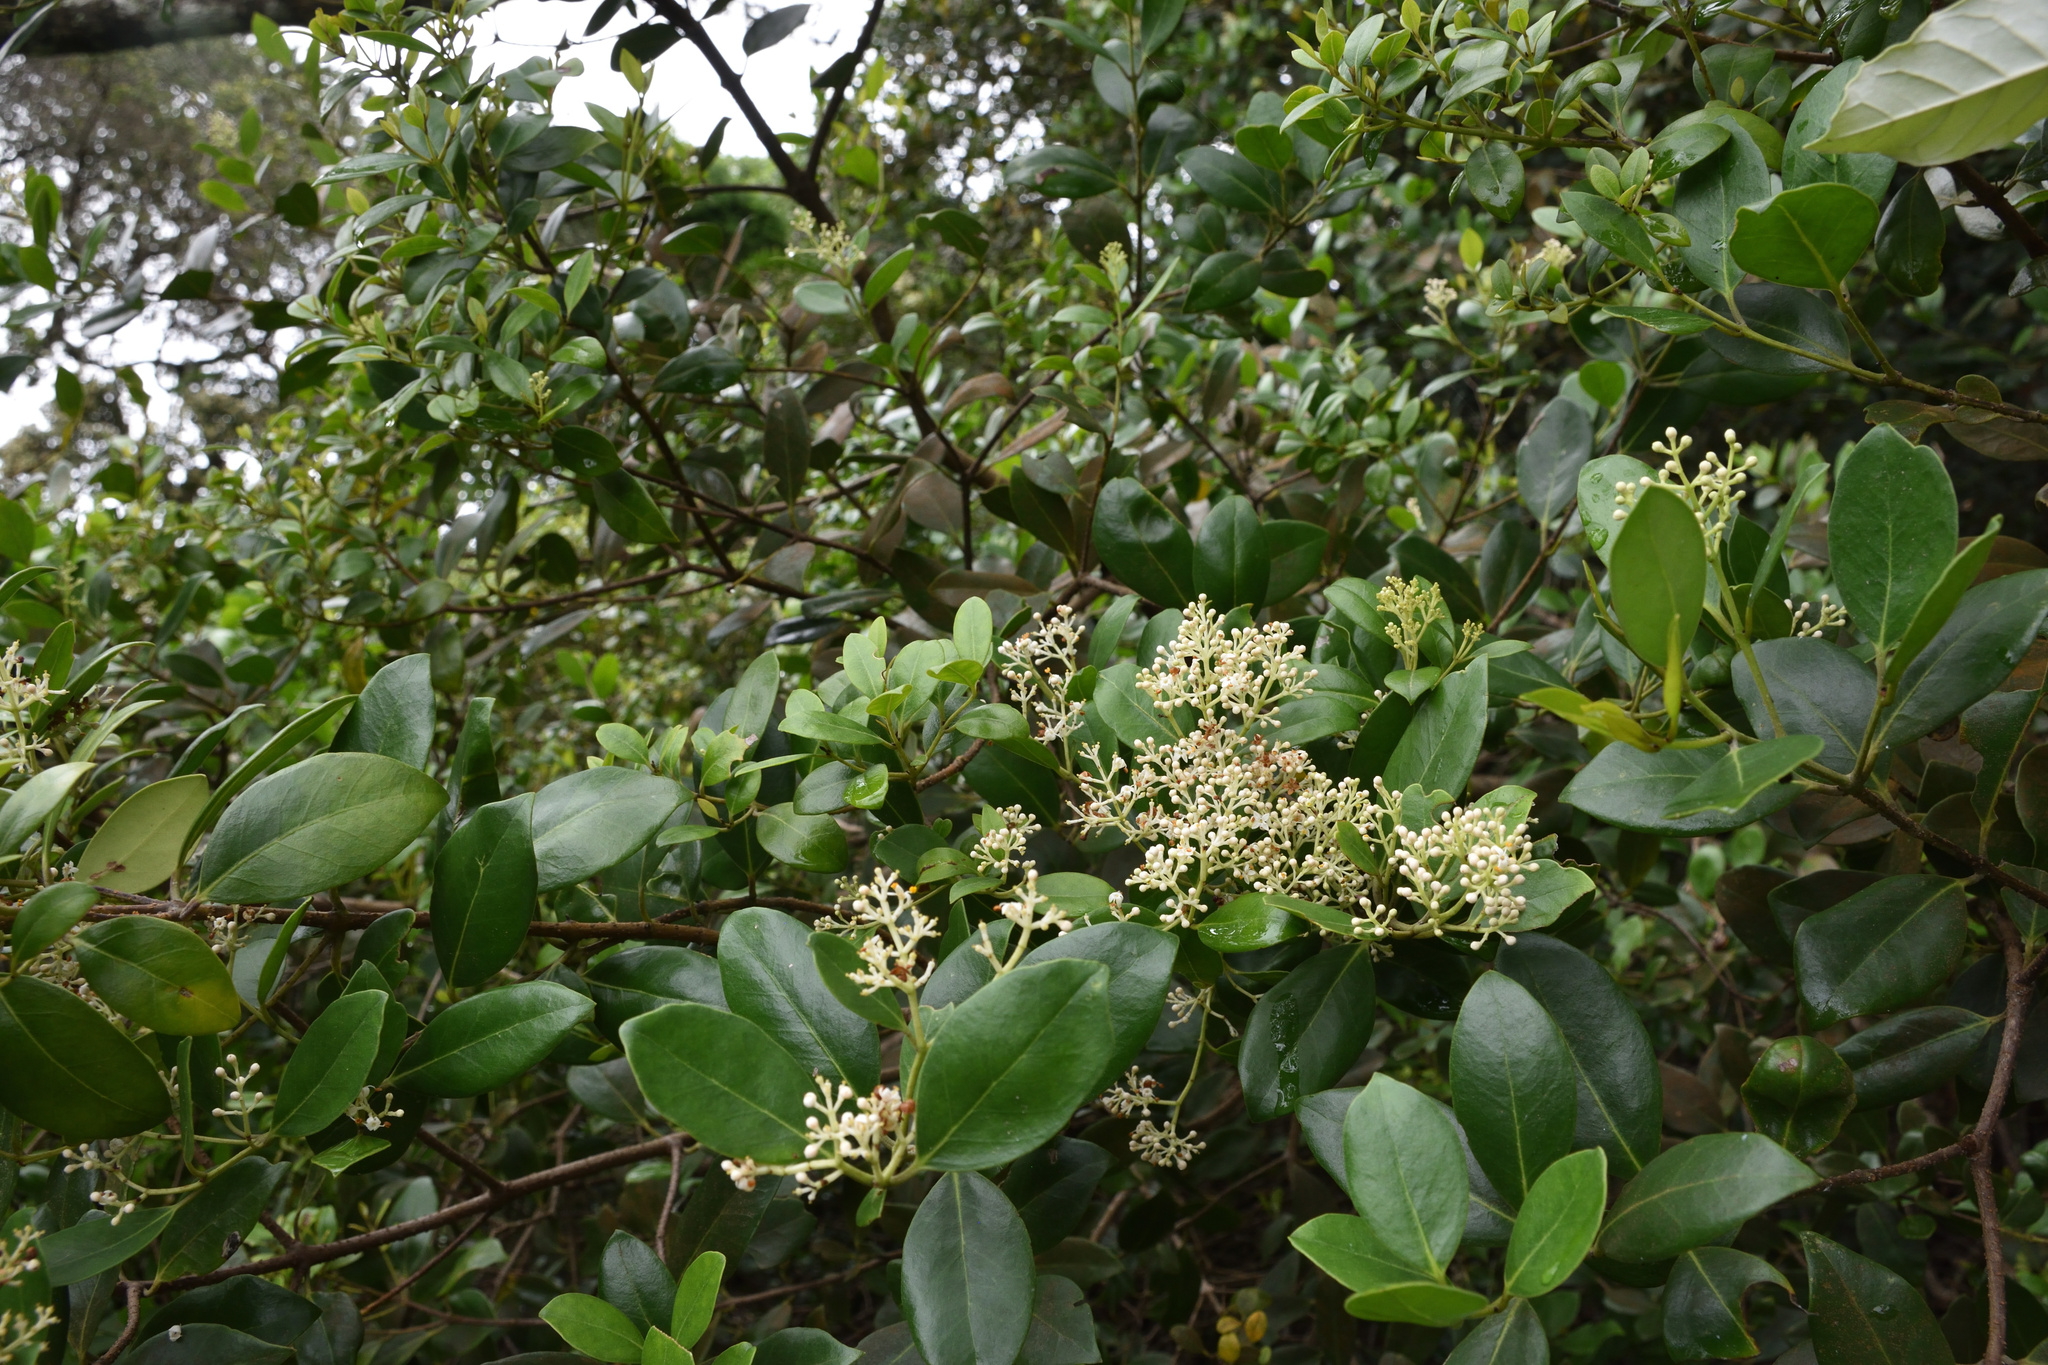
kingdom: Plantae
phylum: Tracheophyta
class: Magnoliopsida
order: Lamiales
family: Oleaceae
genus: Olea
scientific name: Olea capensis
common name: Black ironwood
